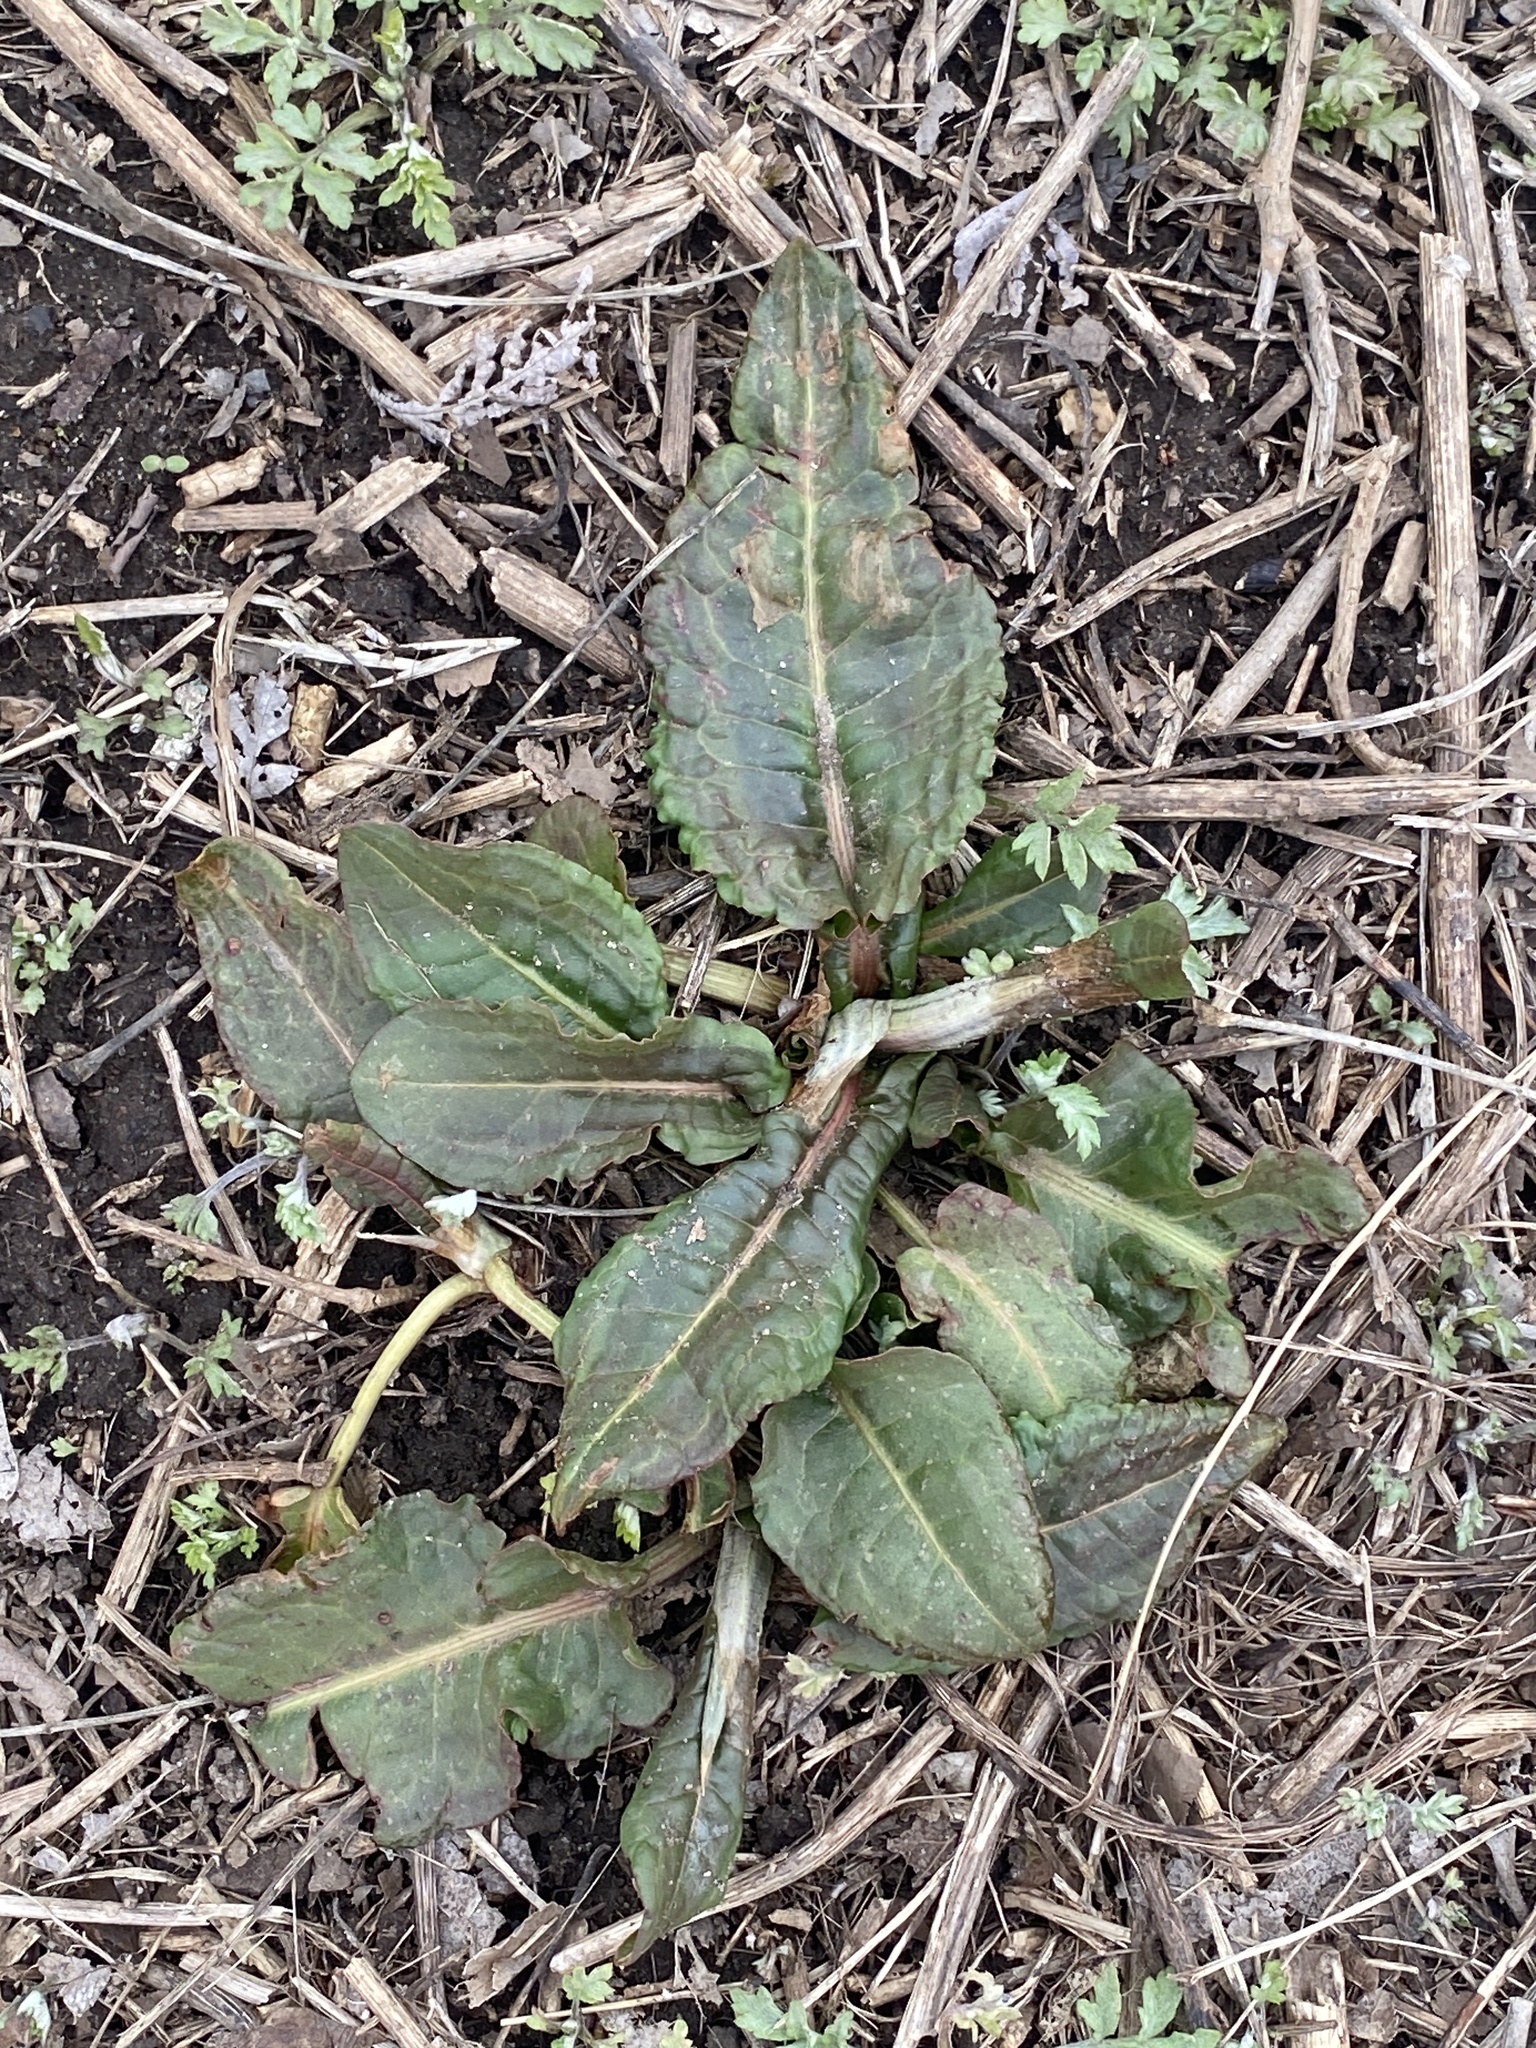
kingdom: Plantae
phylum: Tracheophyta
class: Magnoliopsida
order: Caryophyllales
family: Polygonaceae
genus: Rumex
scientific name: Rumex obtusifolius
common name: Bitter dock
